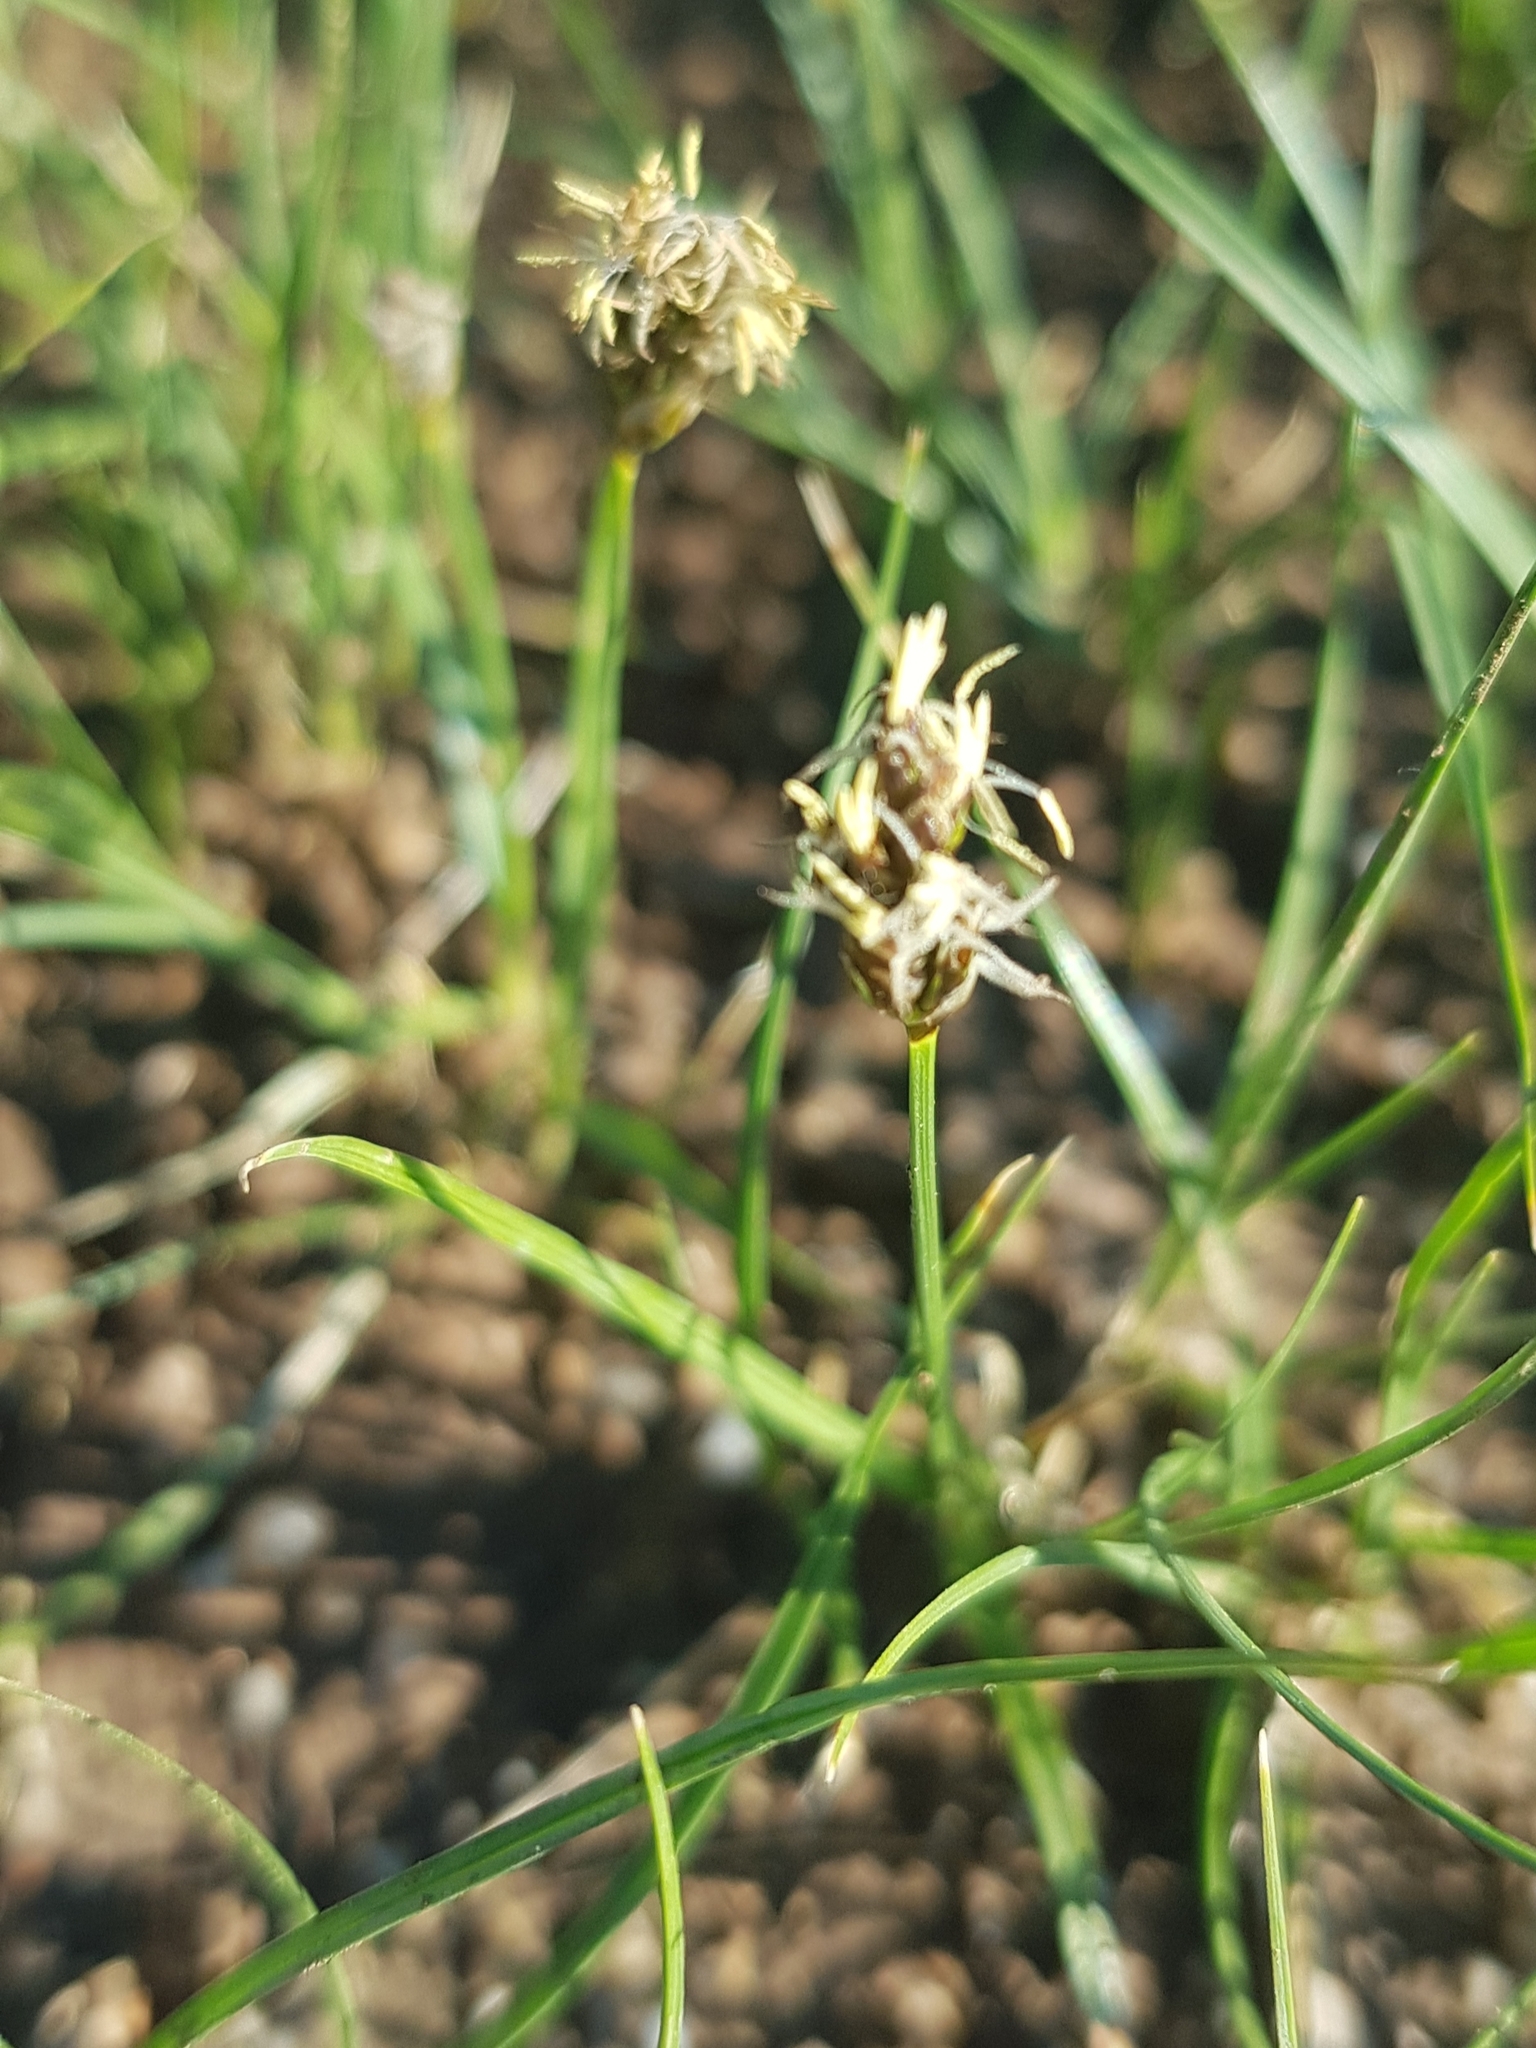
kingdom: Plantae
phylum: Tracheophyta
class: Liliopsida
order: Poales
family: Cyperaceae
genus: Carex
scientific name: Carex duriuscula
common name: Involute-leaved sedge
